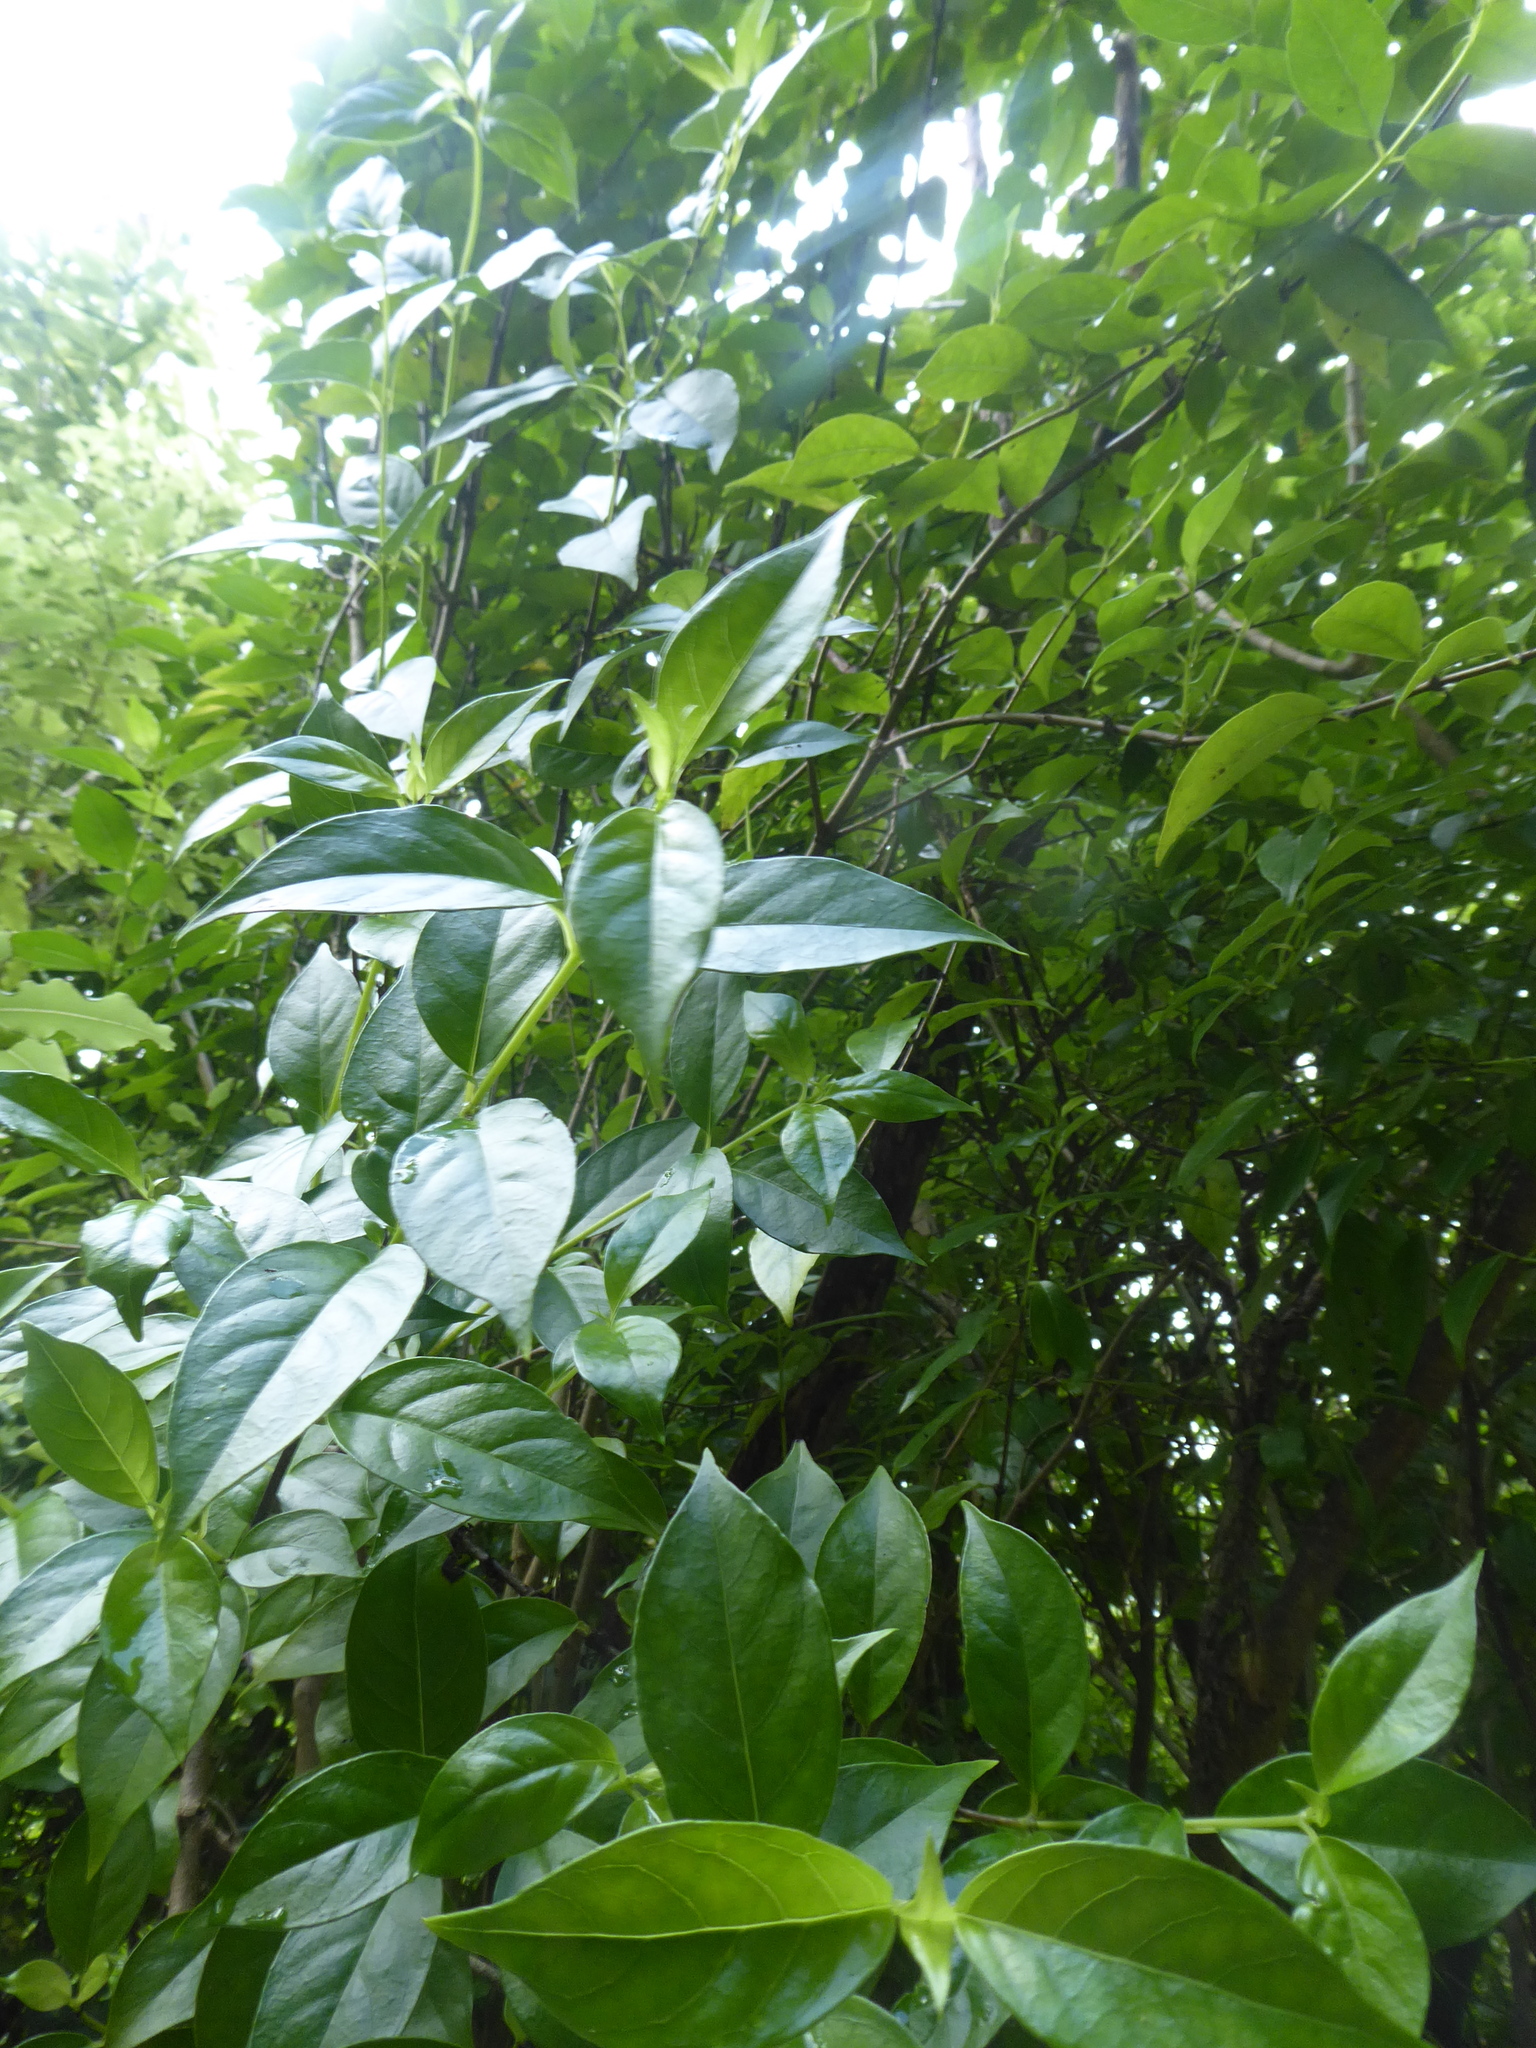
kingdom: Plantae
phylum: Tracheophyta
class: Magnoliopsida
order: Gentianales
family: Loganiaceae
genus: Geniostoma
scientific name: Geniostoma ligustrifolium
